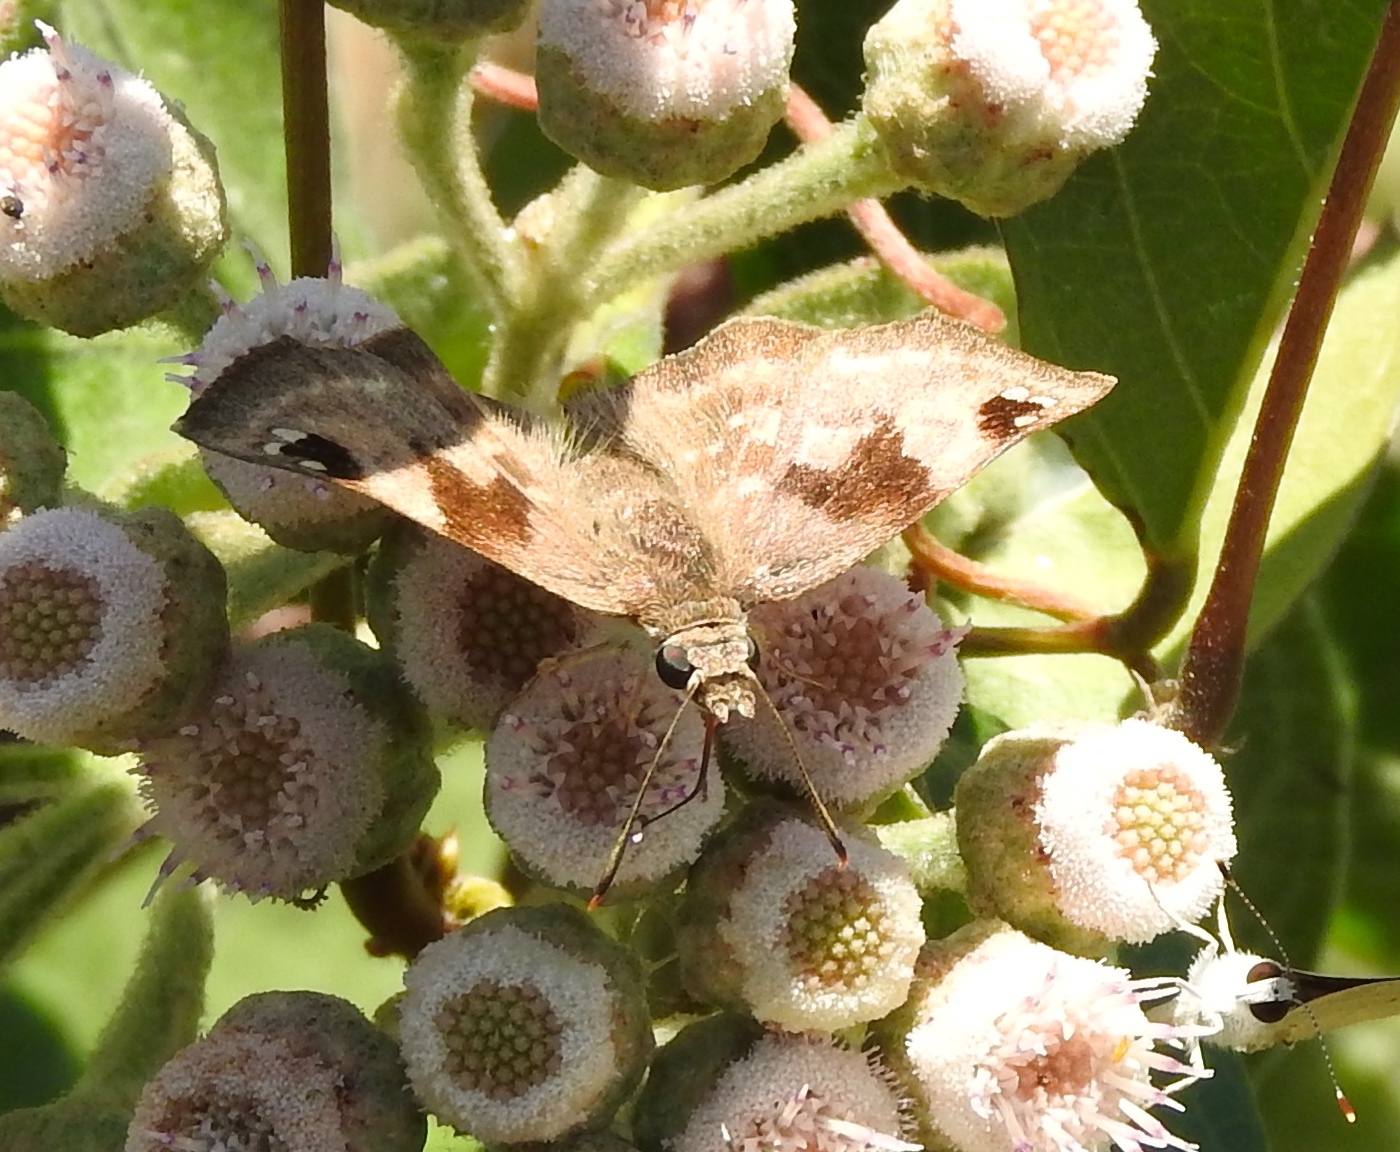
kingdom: Animalia
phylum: Arthropoda
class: Insecta
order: Lepidoptera
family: Hesperiidae
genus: Arteurotia
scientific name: Arteurotia tractipennis
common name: Starred skipper
